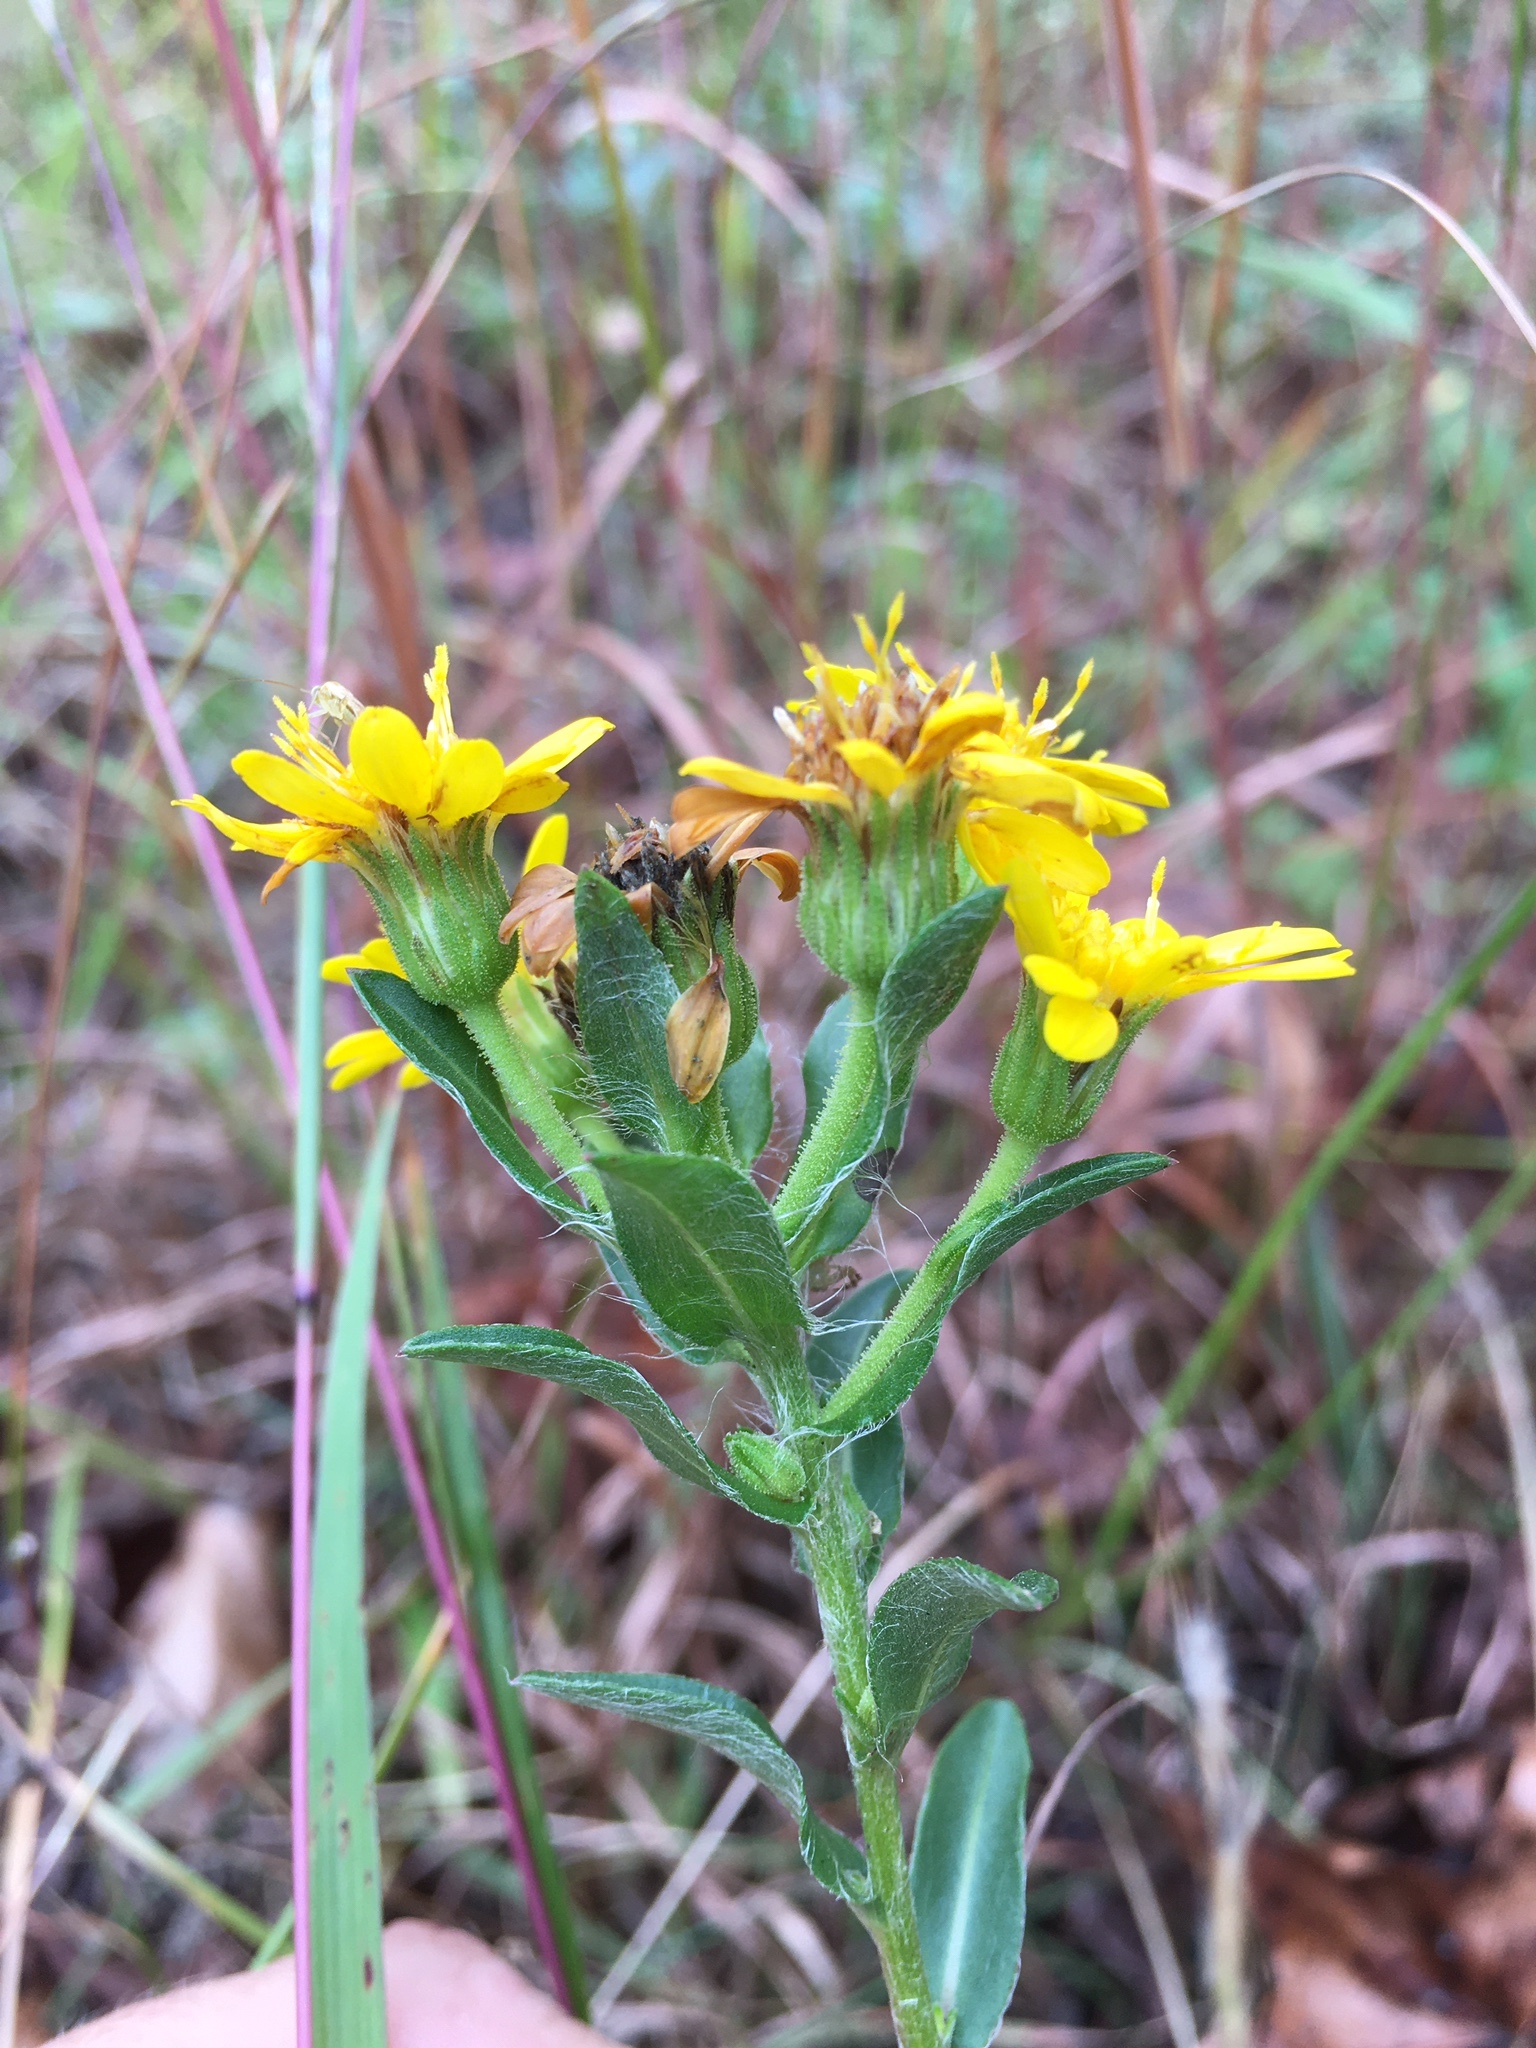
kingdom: Plantae
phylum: Tracheophyta
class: Magnoliopsida
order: Asterales
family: Asteraceae
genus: Chrysopsis
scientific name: Chrysopsis mariana
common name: Maryland golden-aster
